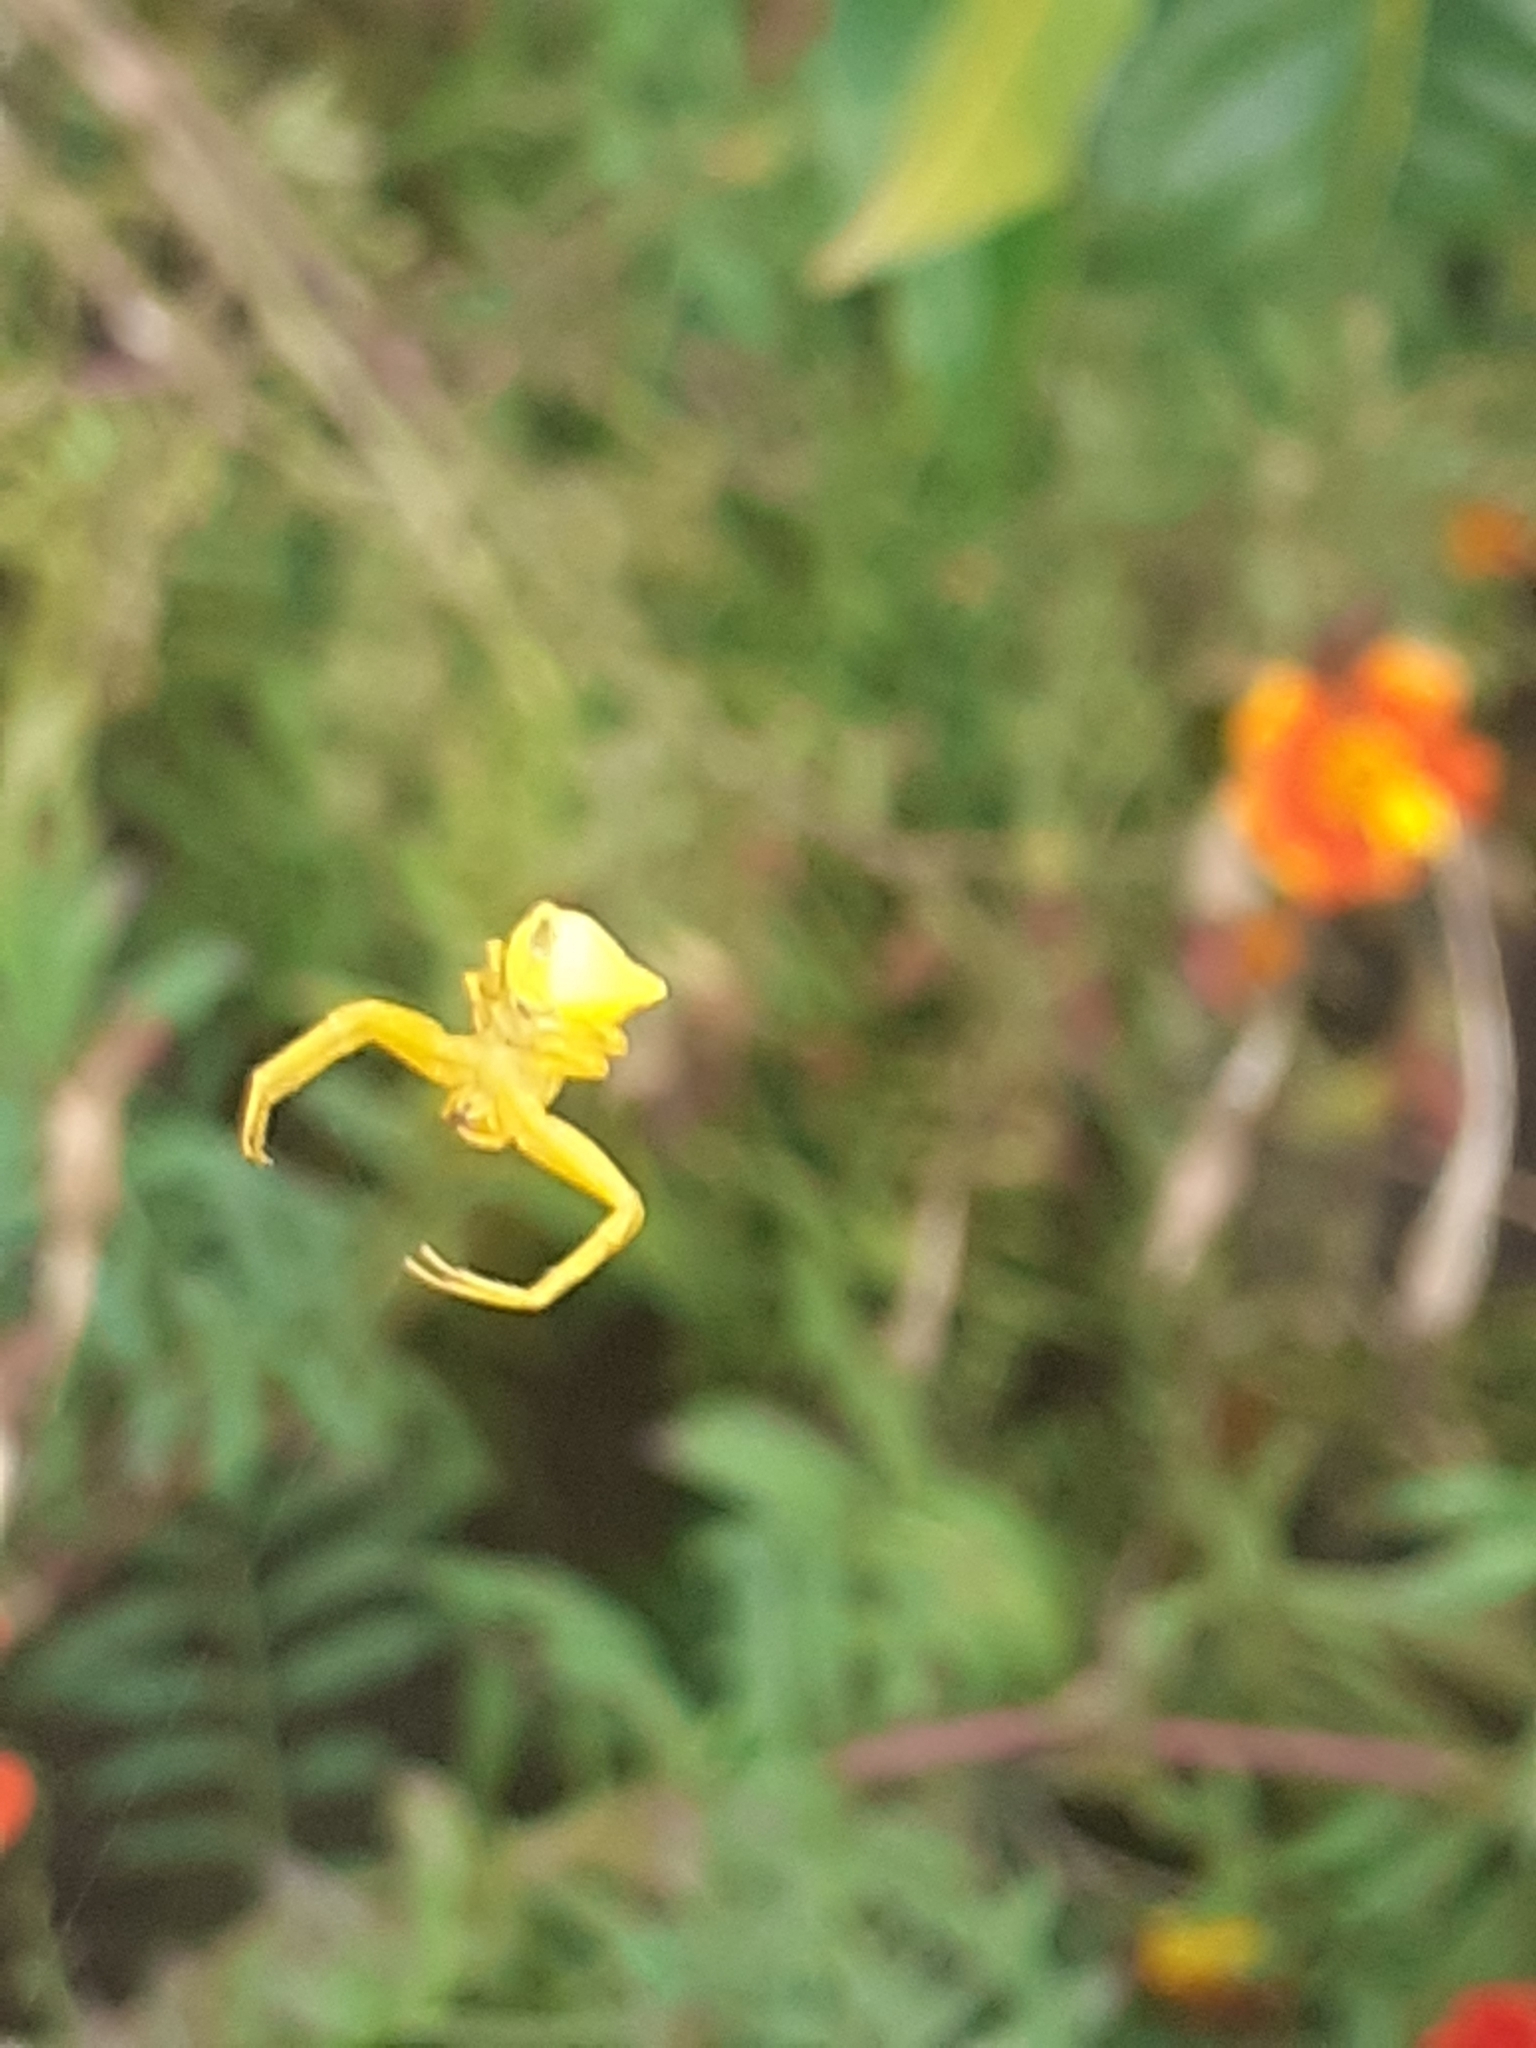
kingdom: Animalia
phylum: Arthropoda
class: Arachnida
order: Araneae
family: Thomisidae
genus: Thomisus
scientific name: Thomisus onustus
